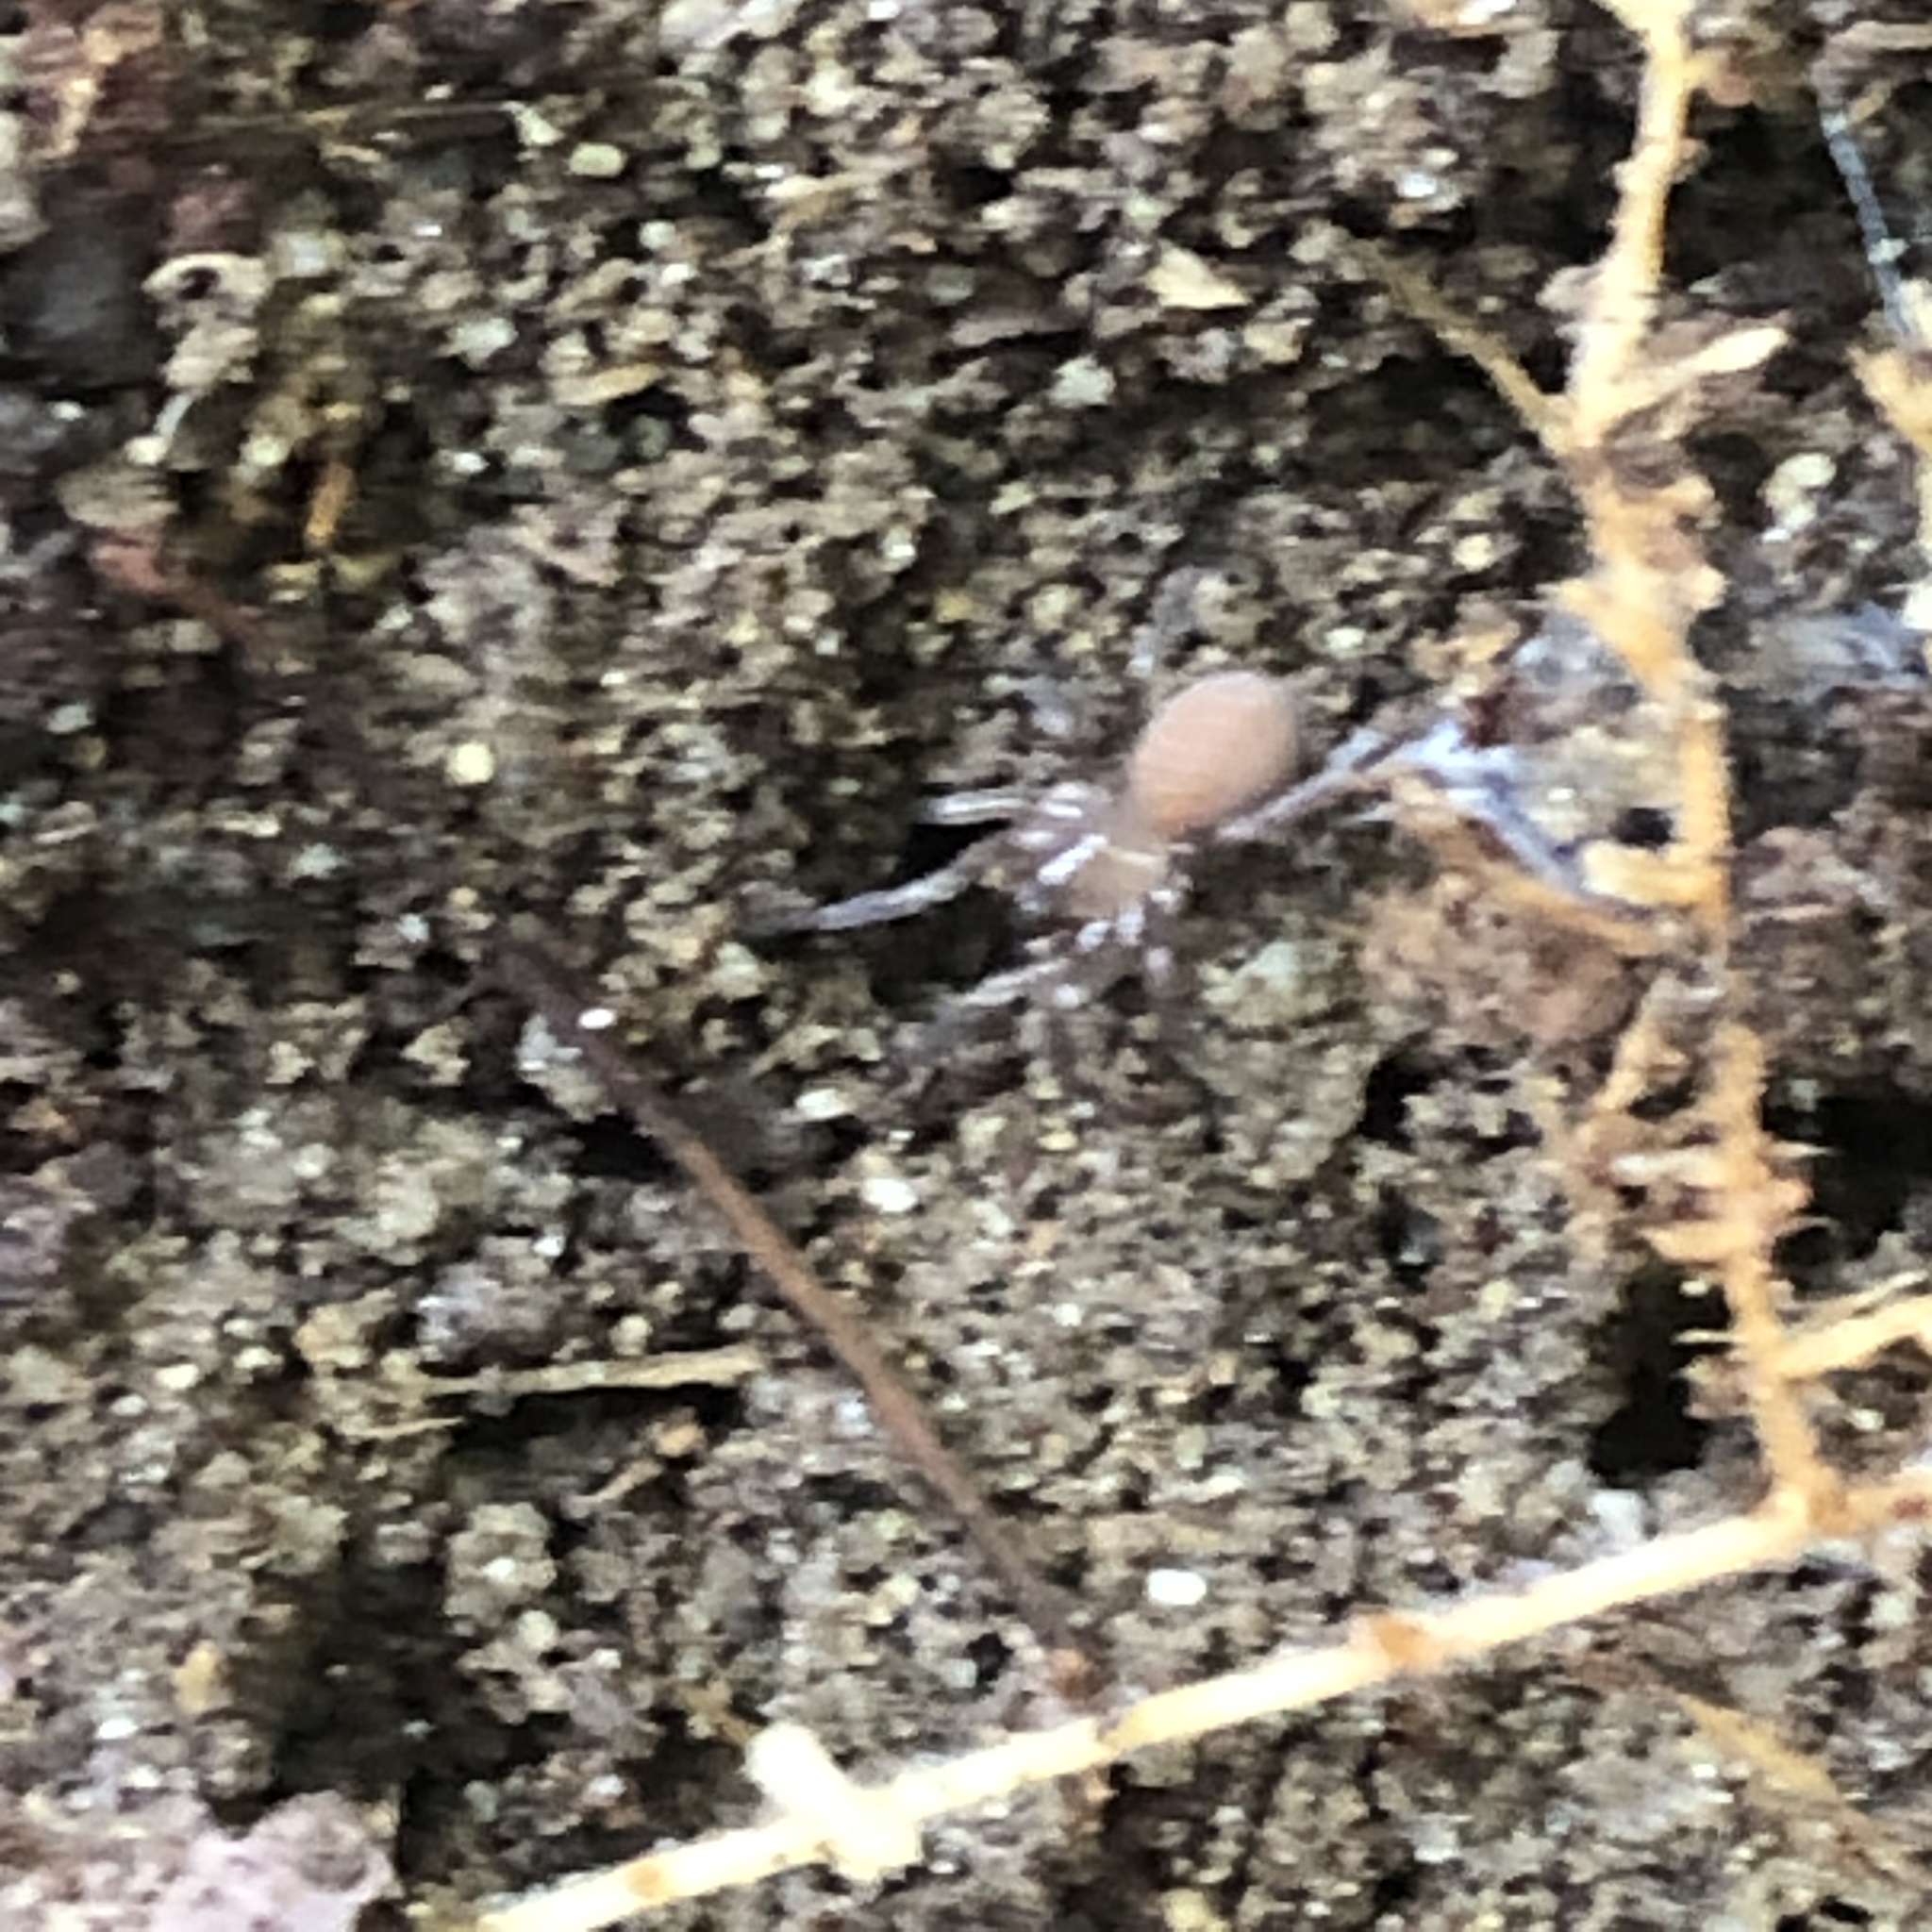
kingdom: Animalia
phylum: Arthropoda
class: Arachnida
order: Araneae
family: Antrodiaetidae
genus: Antrodiaetus
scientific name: Antrodiaetus unicolor
